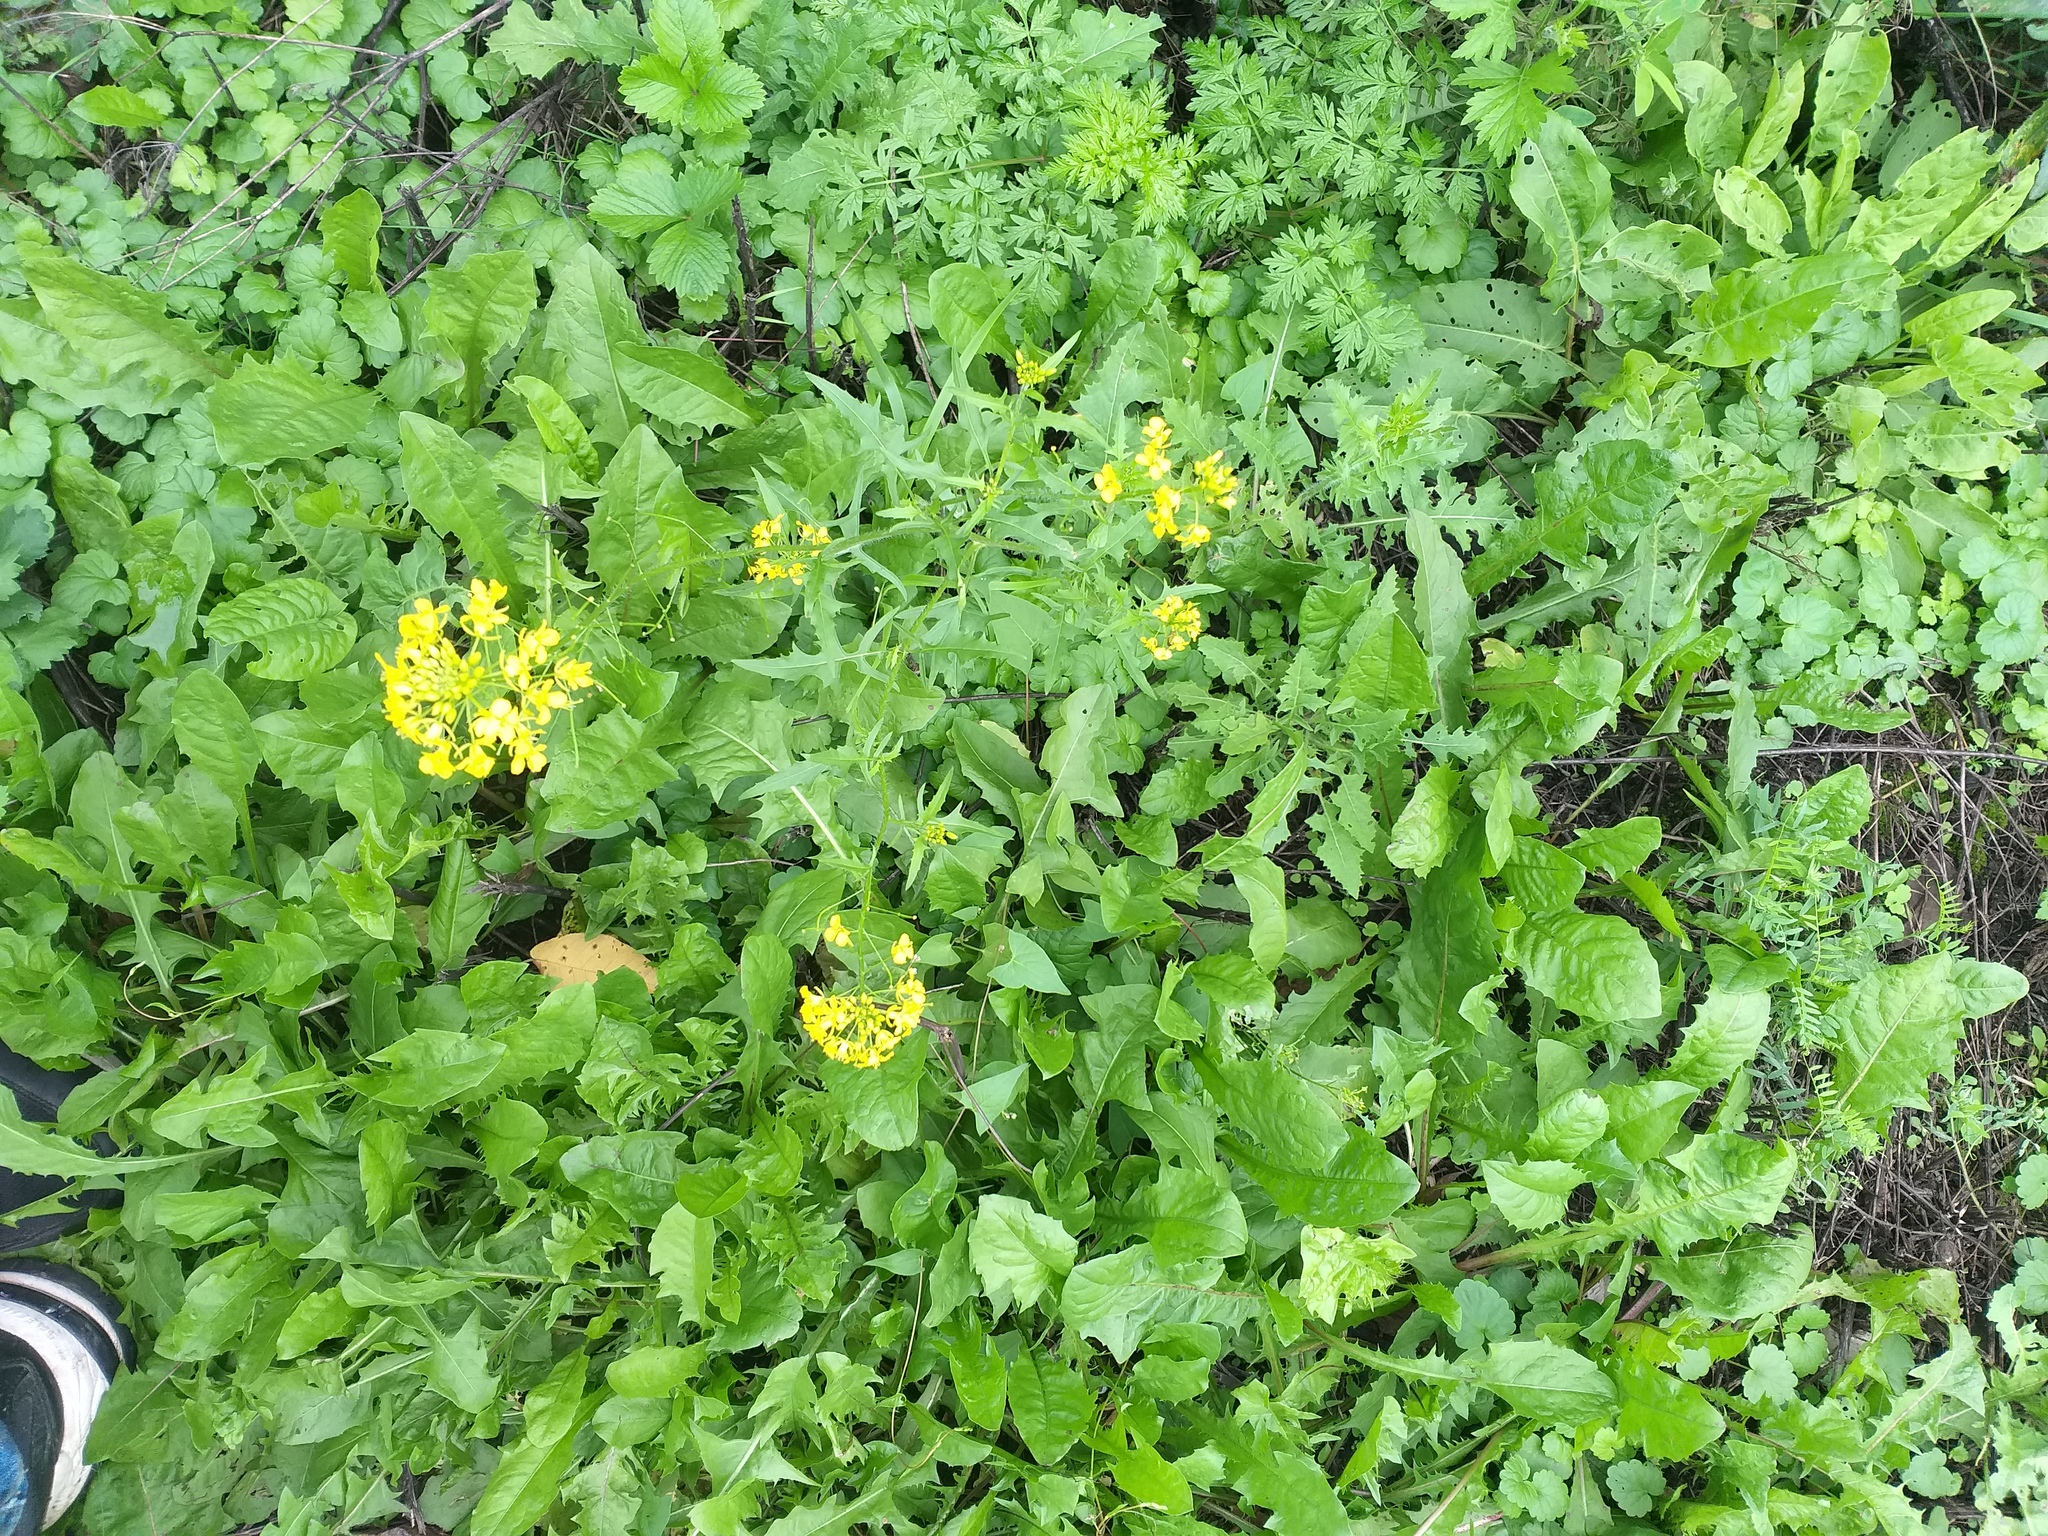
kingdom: Plantae
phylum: Tracheophyta
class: Magnoliopsida
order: Brassicales
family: Brassicaceae
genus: Sisymbrium
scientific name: Sisymbrium loeselii
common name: False london-rocket
